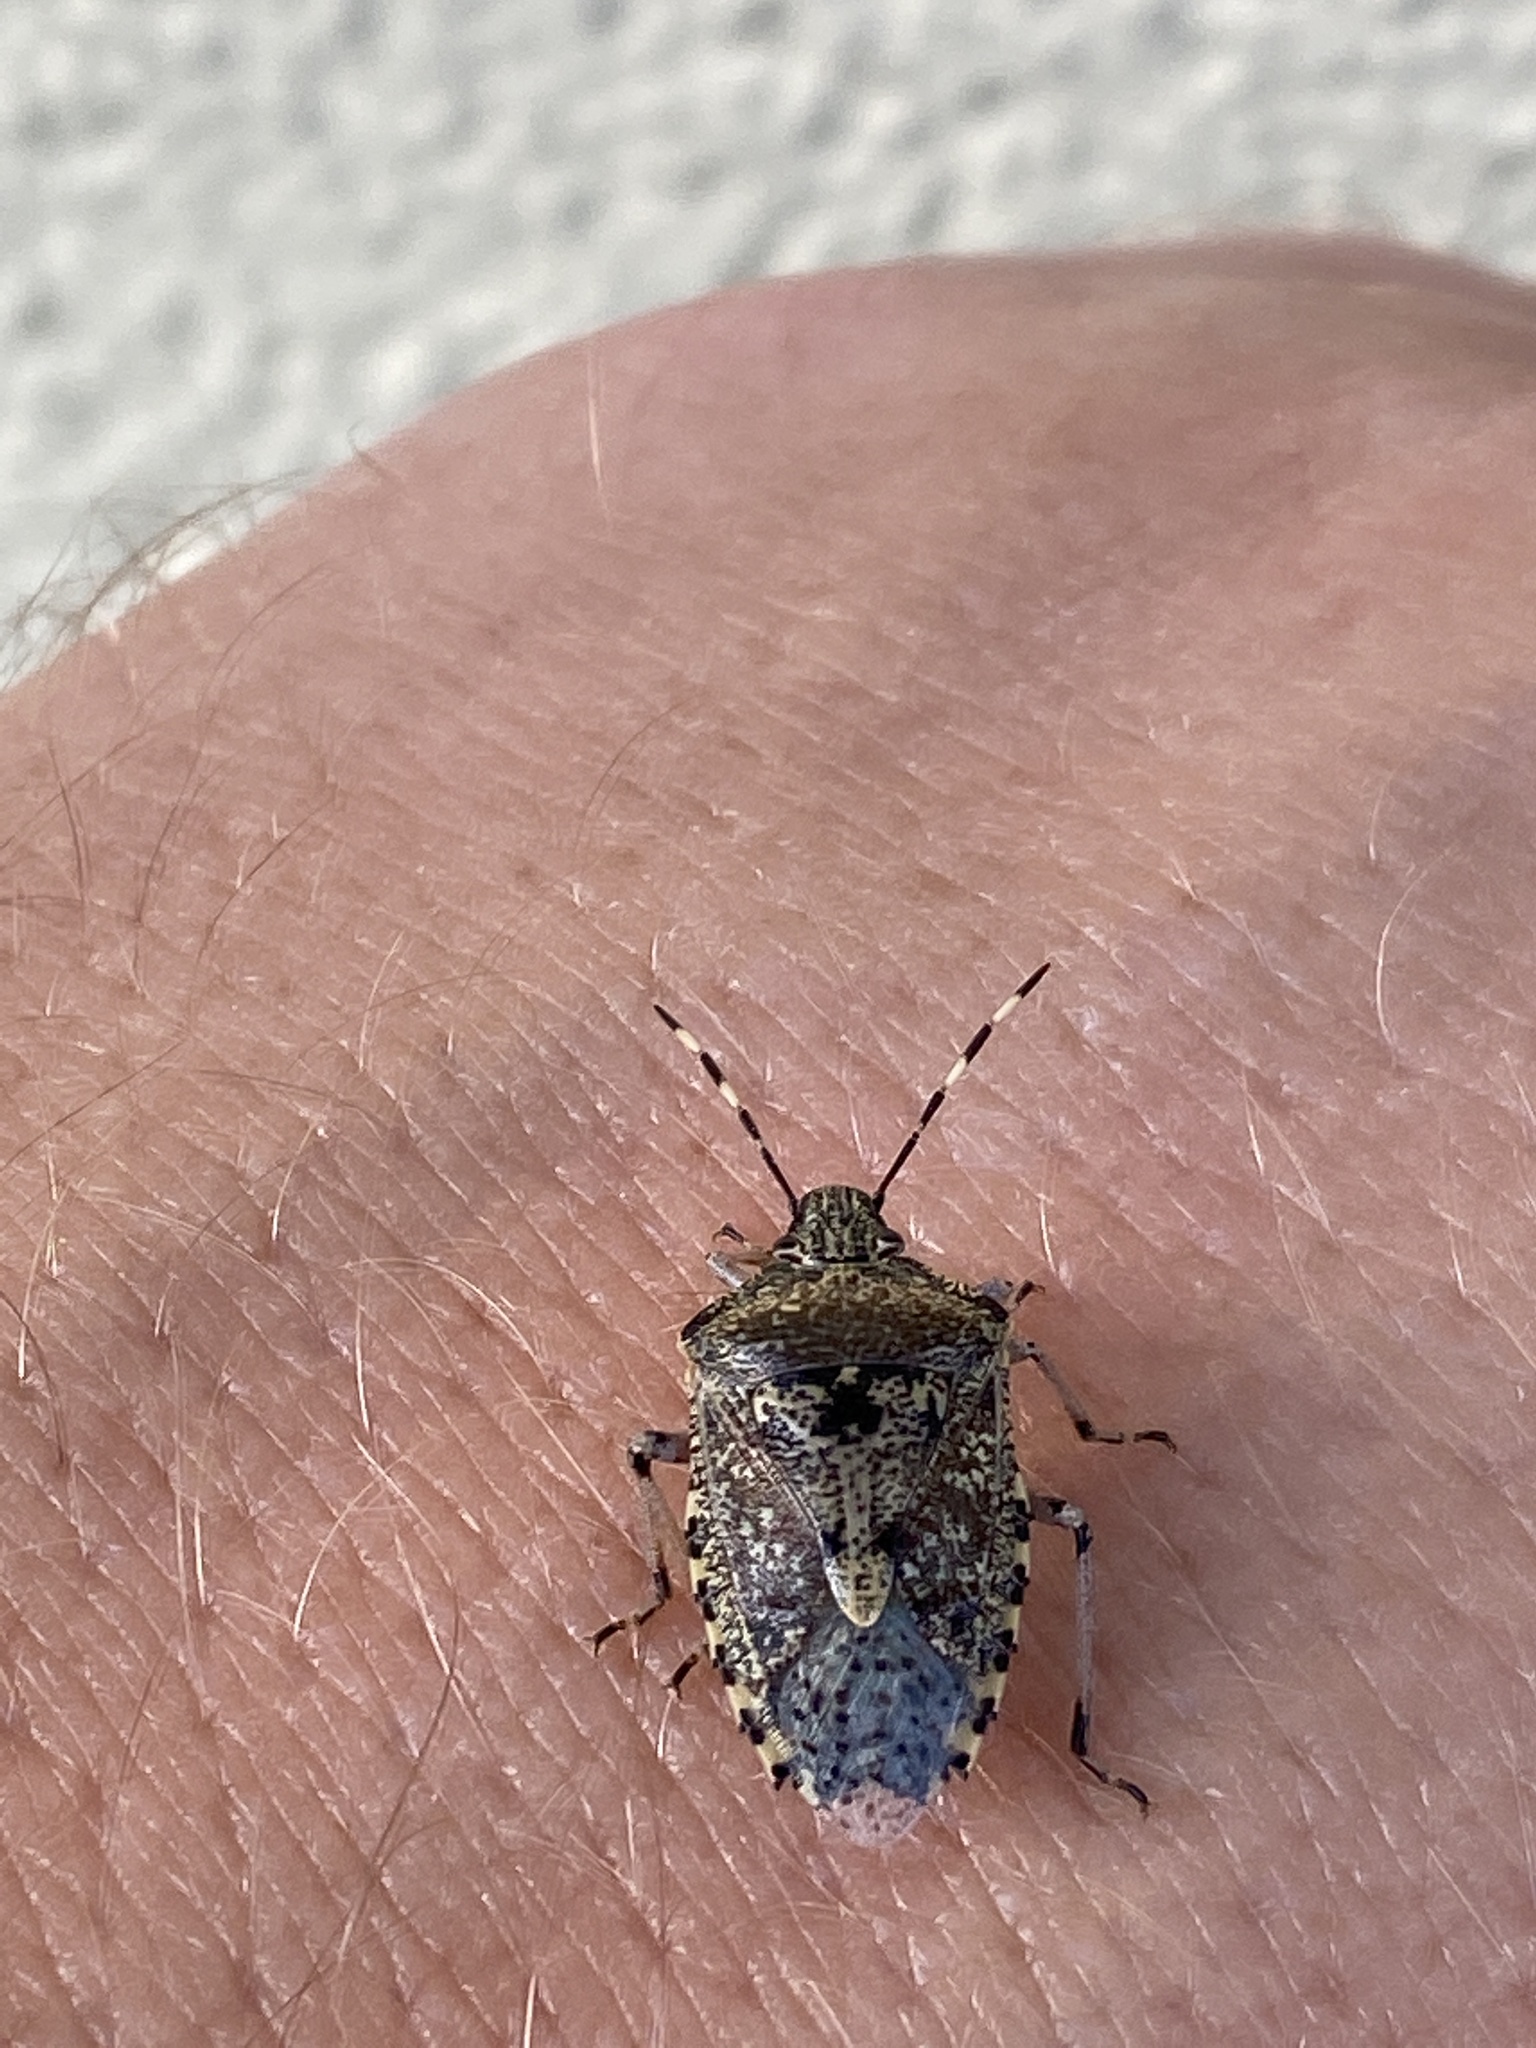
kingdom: Animalia
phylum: Arthropoda
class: Insecta
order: Hemiptera
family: Pentatomidae
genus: Rhaphigaster
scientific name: Rhaphigaster nebulosa
